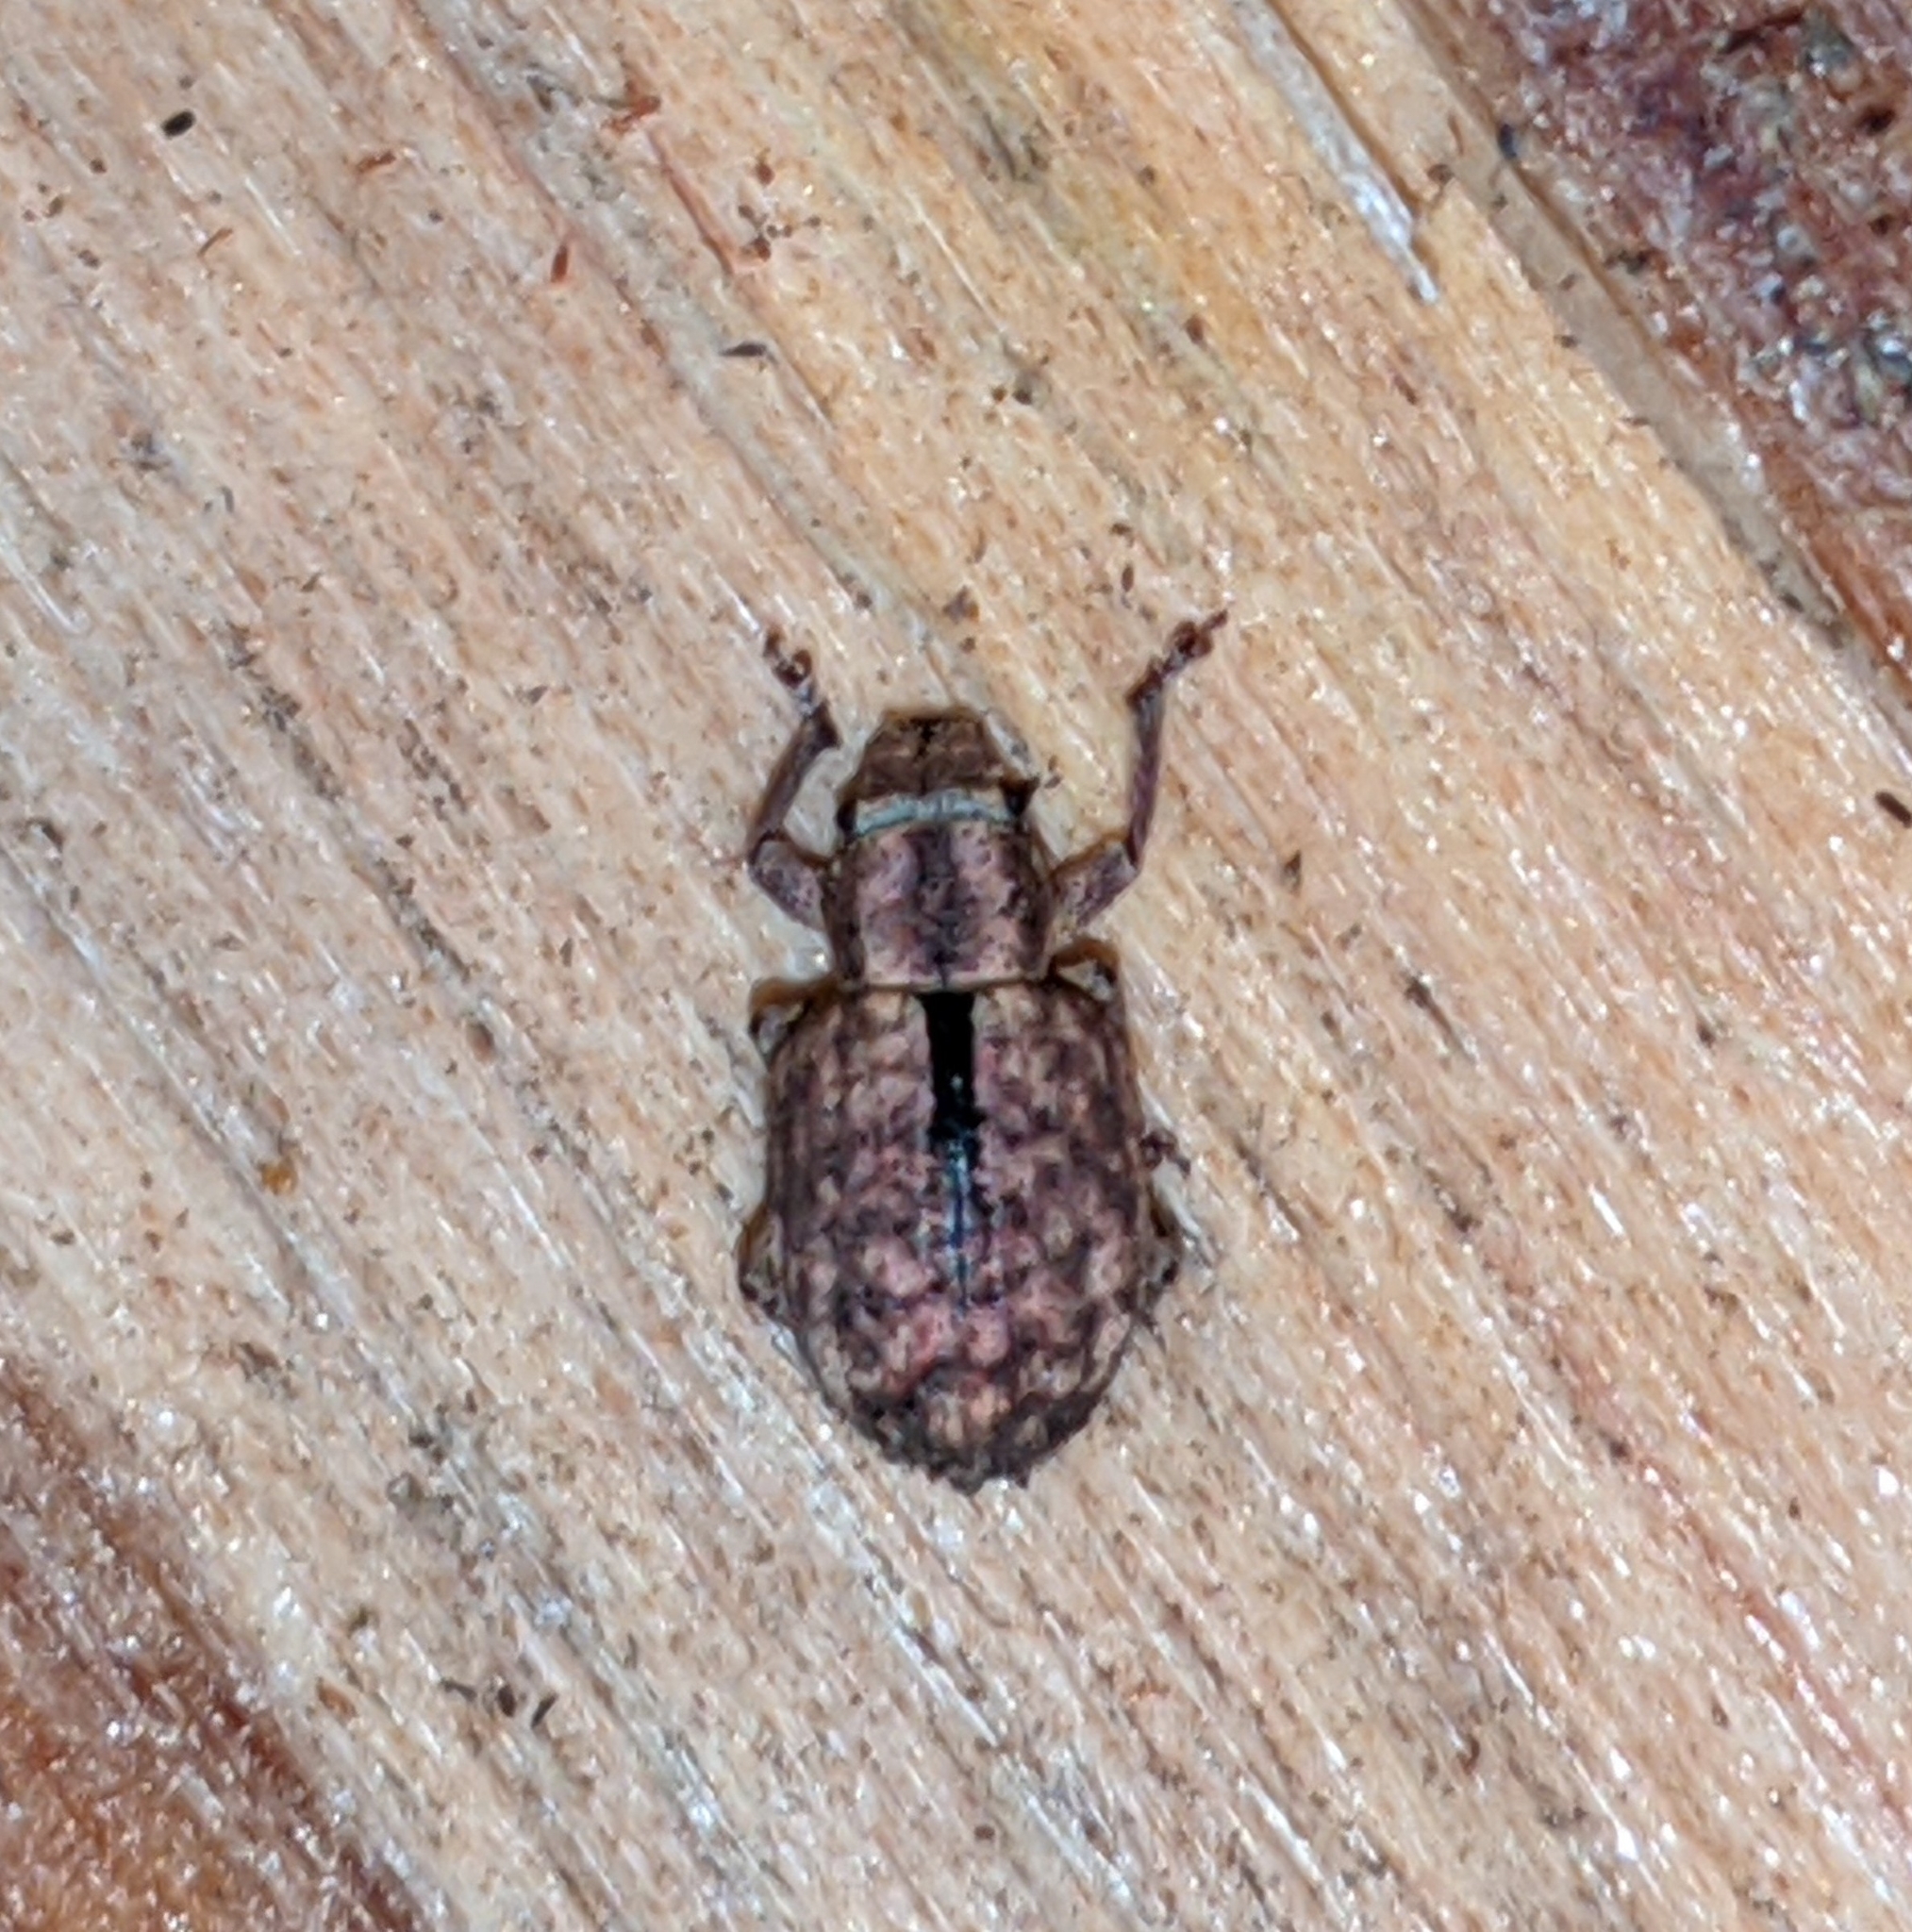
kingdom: Animalia
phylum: Arthropoda
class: Insecta
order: Coleoptera
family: Curculionidae
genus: Strophosoma
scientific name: Strophosoma melanogrammum
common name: Weevil
